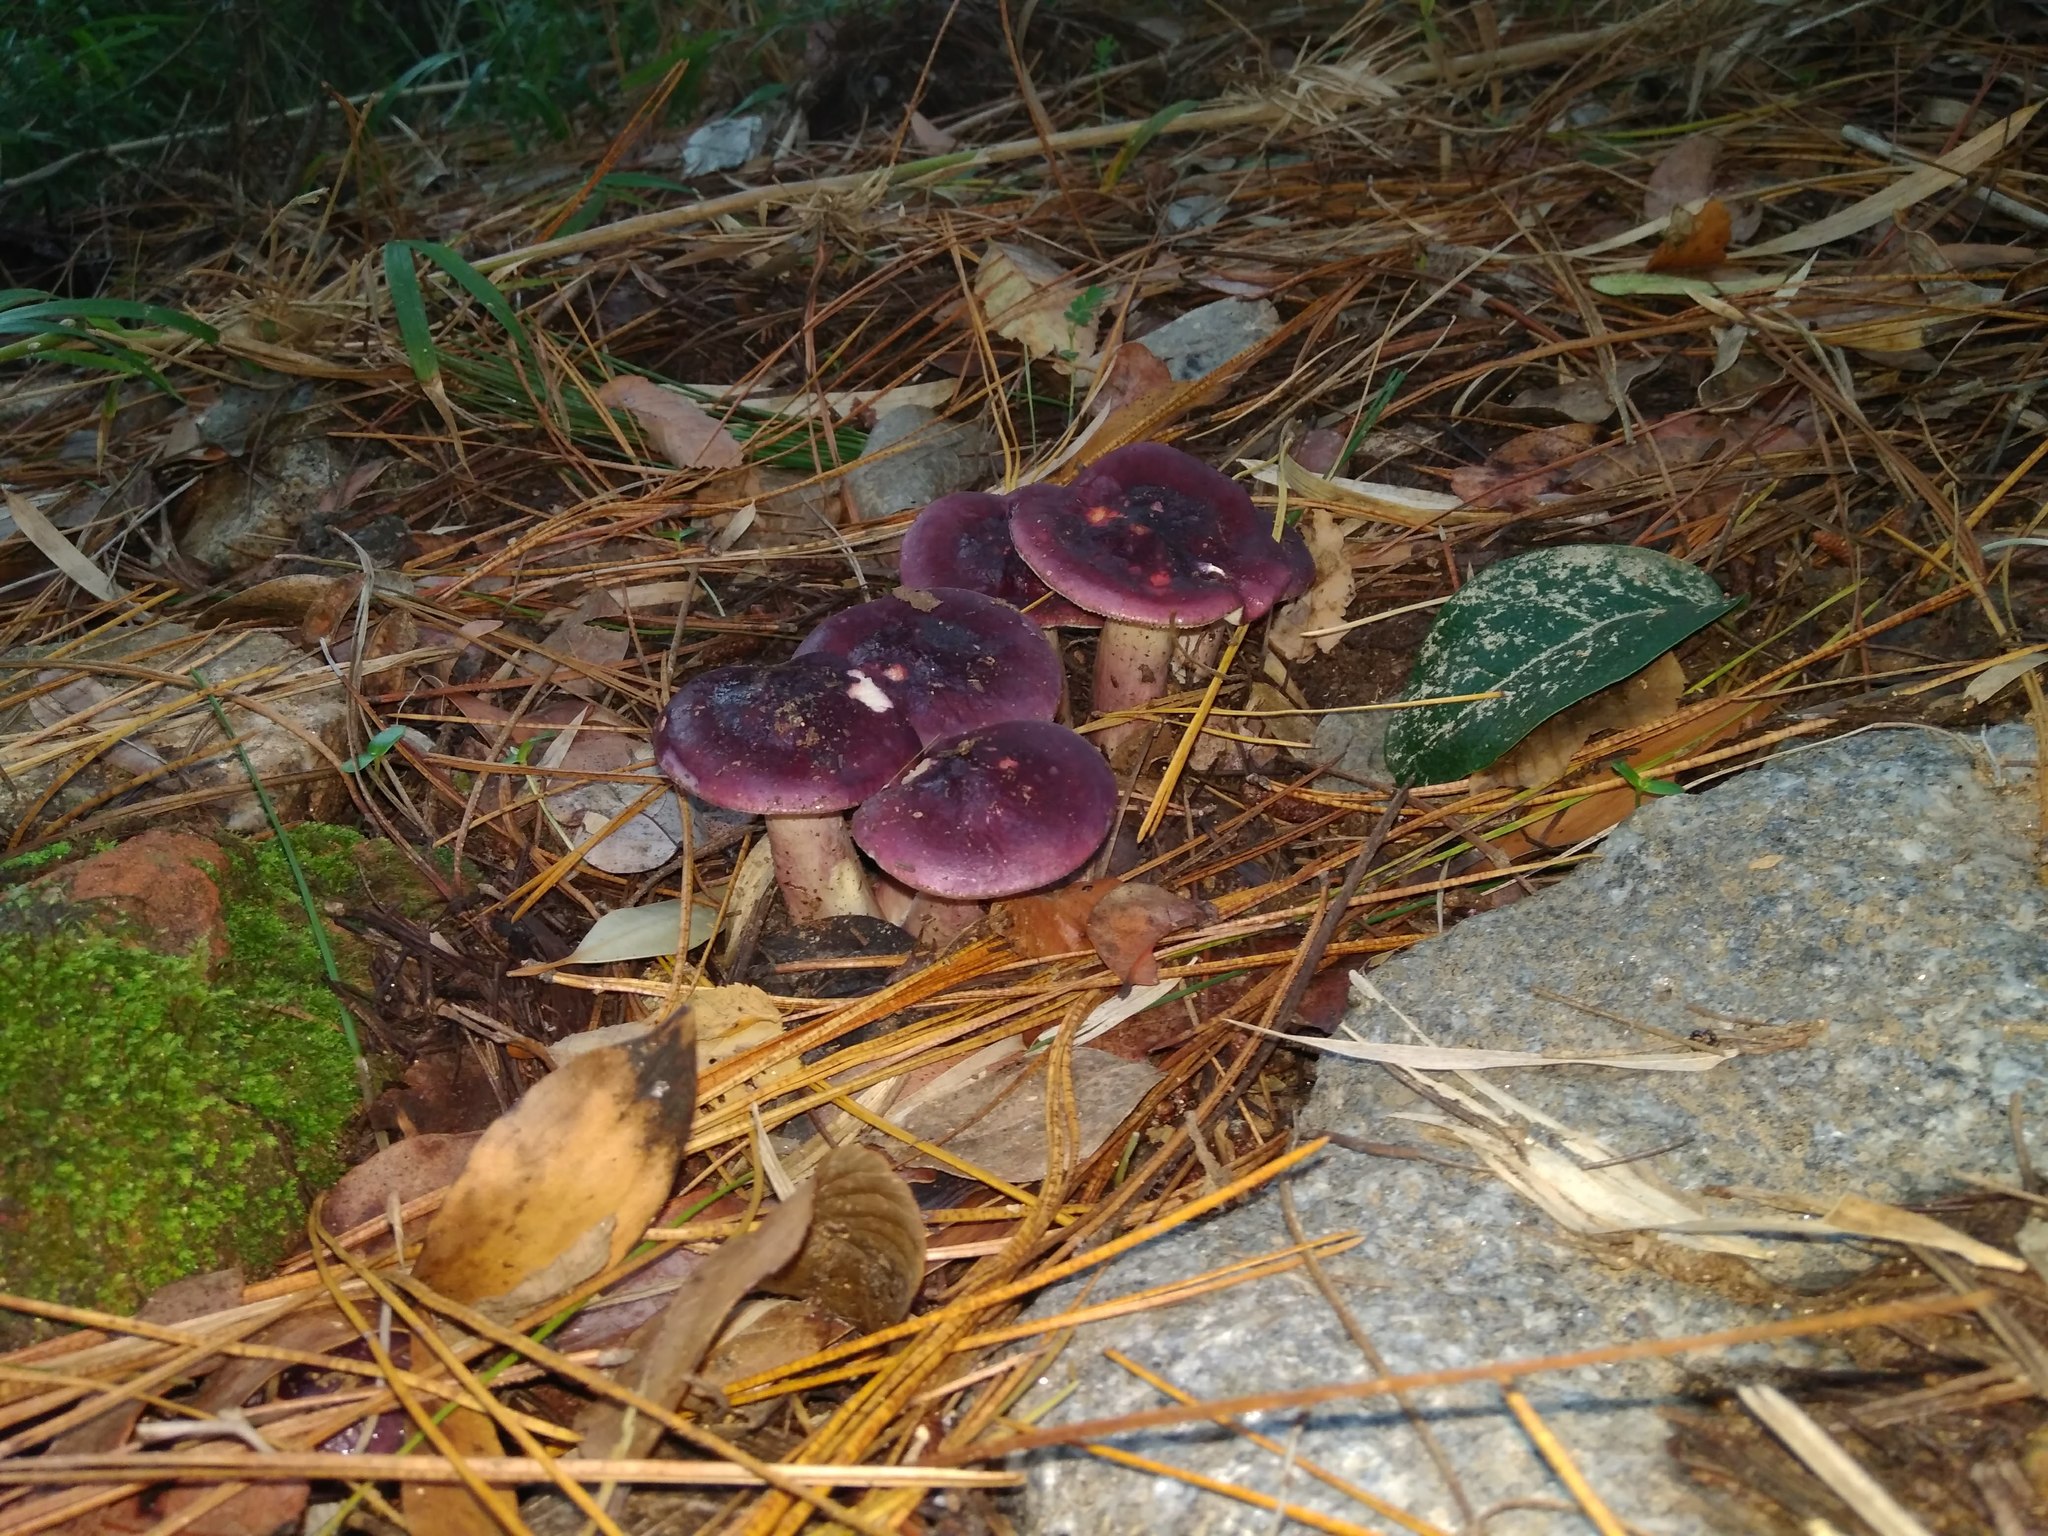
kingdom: Fungi
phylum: Basidiomycota
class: Agaricomycetes
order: Russulales
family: Russulaceae
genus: Russula
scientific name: Russula sardonia
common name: Primrose brittlegill
